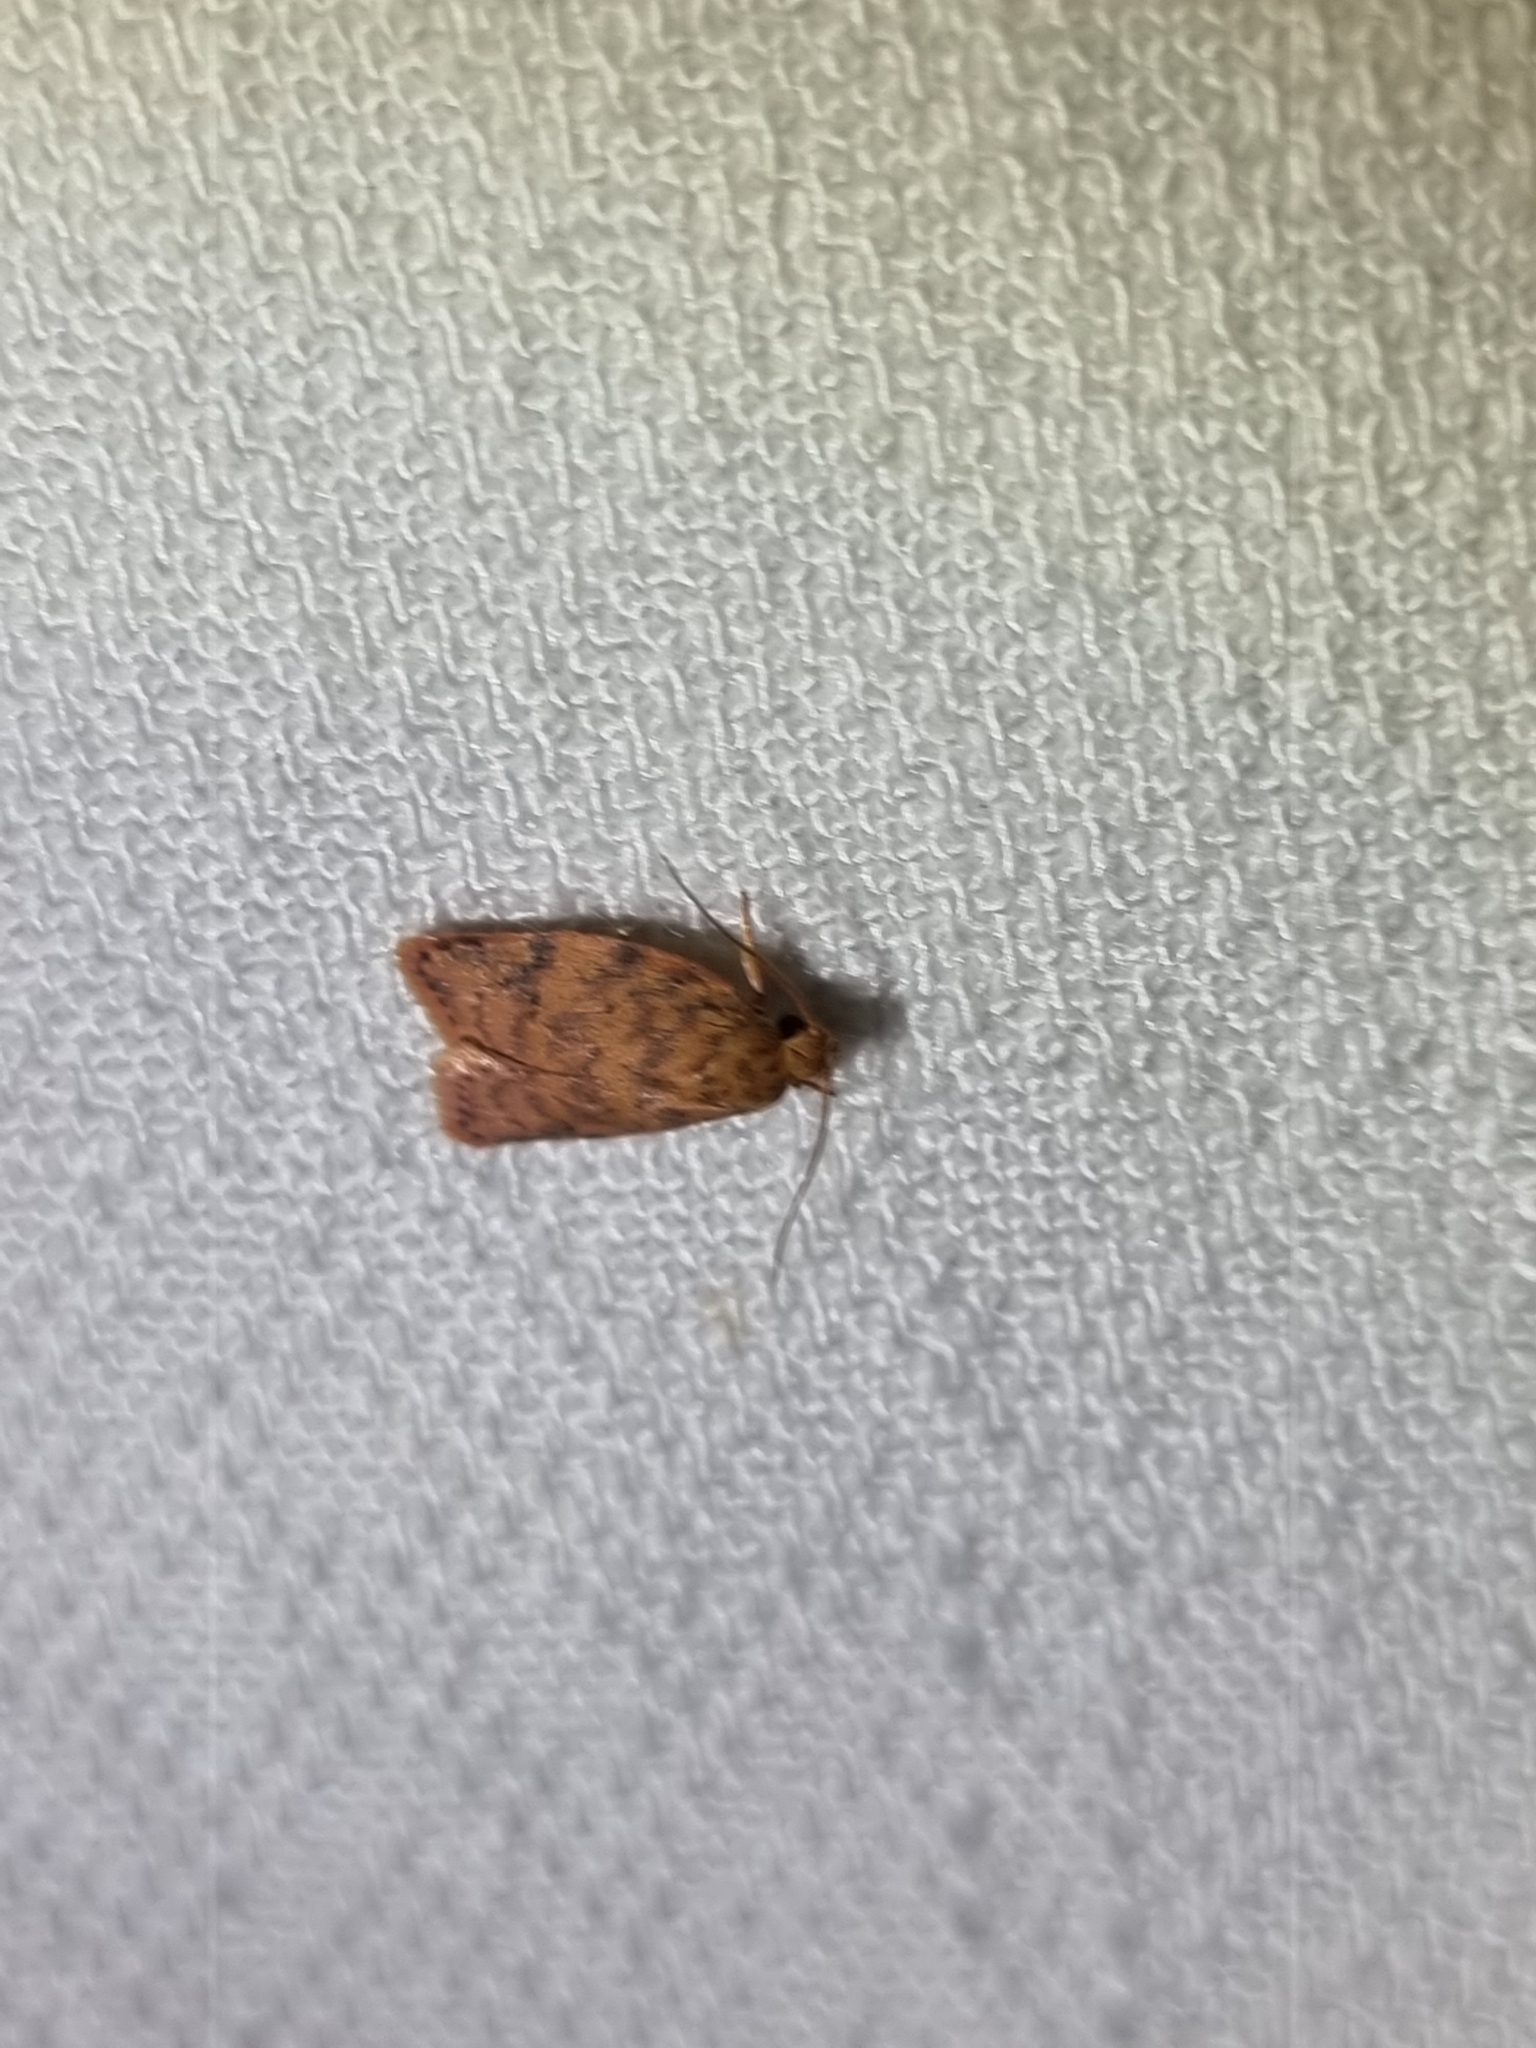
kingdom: Animalia
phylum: Arthropoda
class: Insecta
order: Lepidoptera
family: Oecophoridae
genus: Garrha
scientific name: Garrha costimacula
